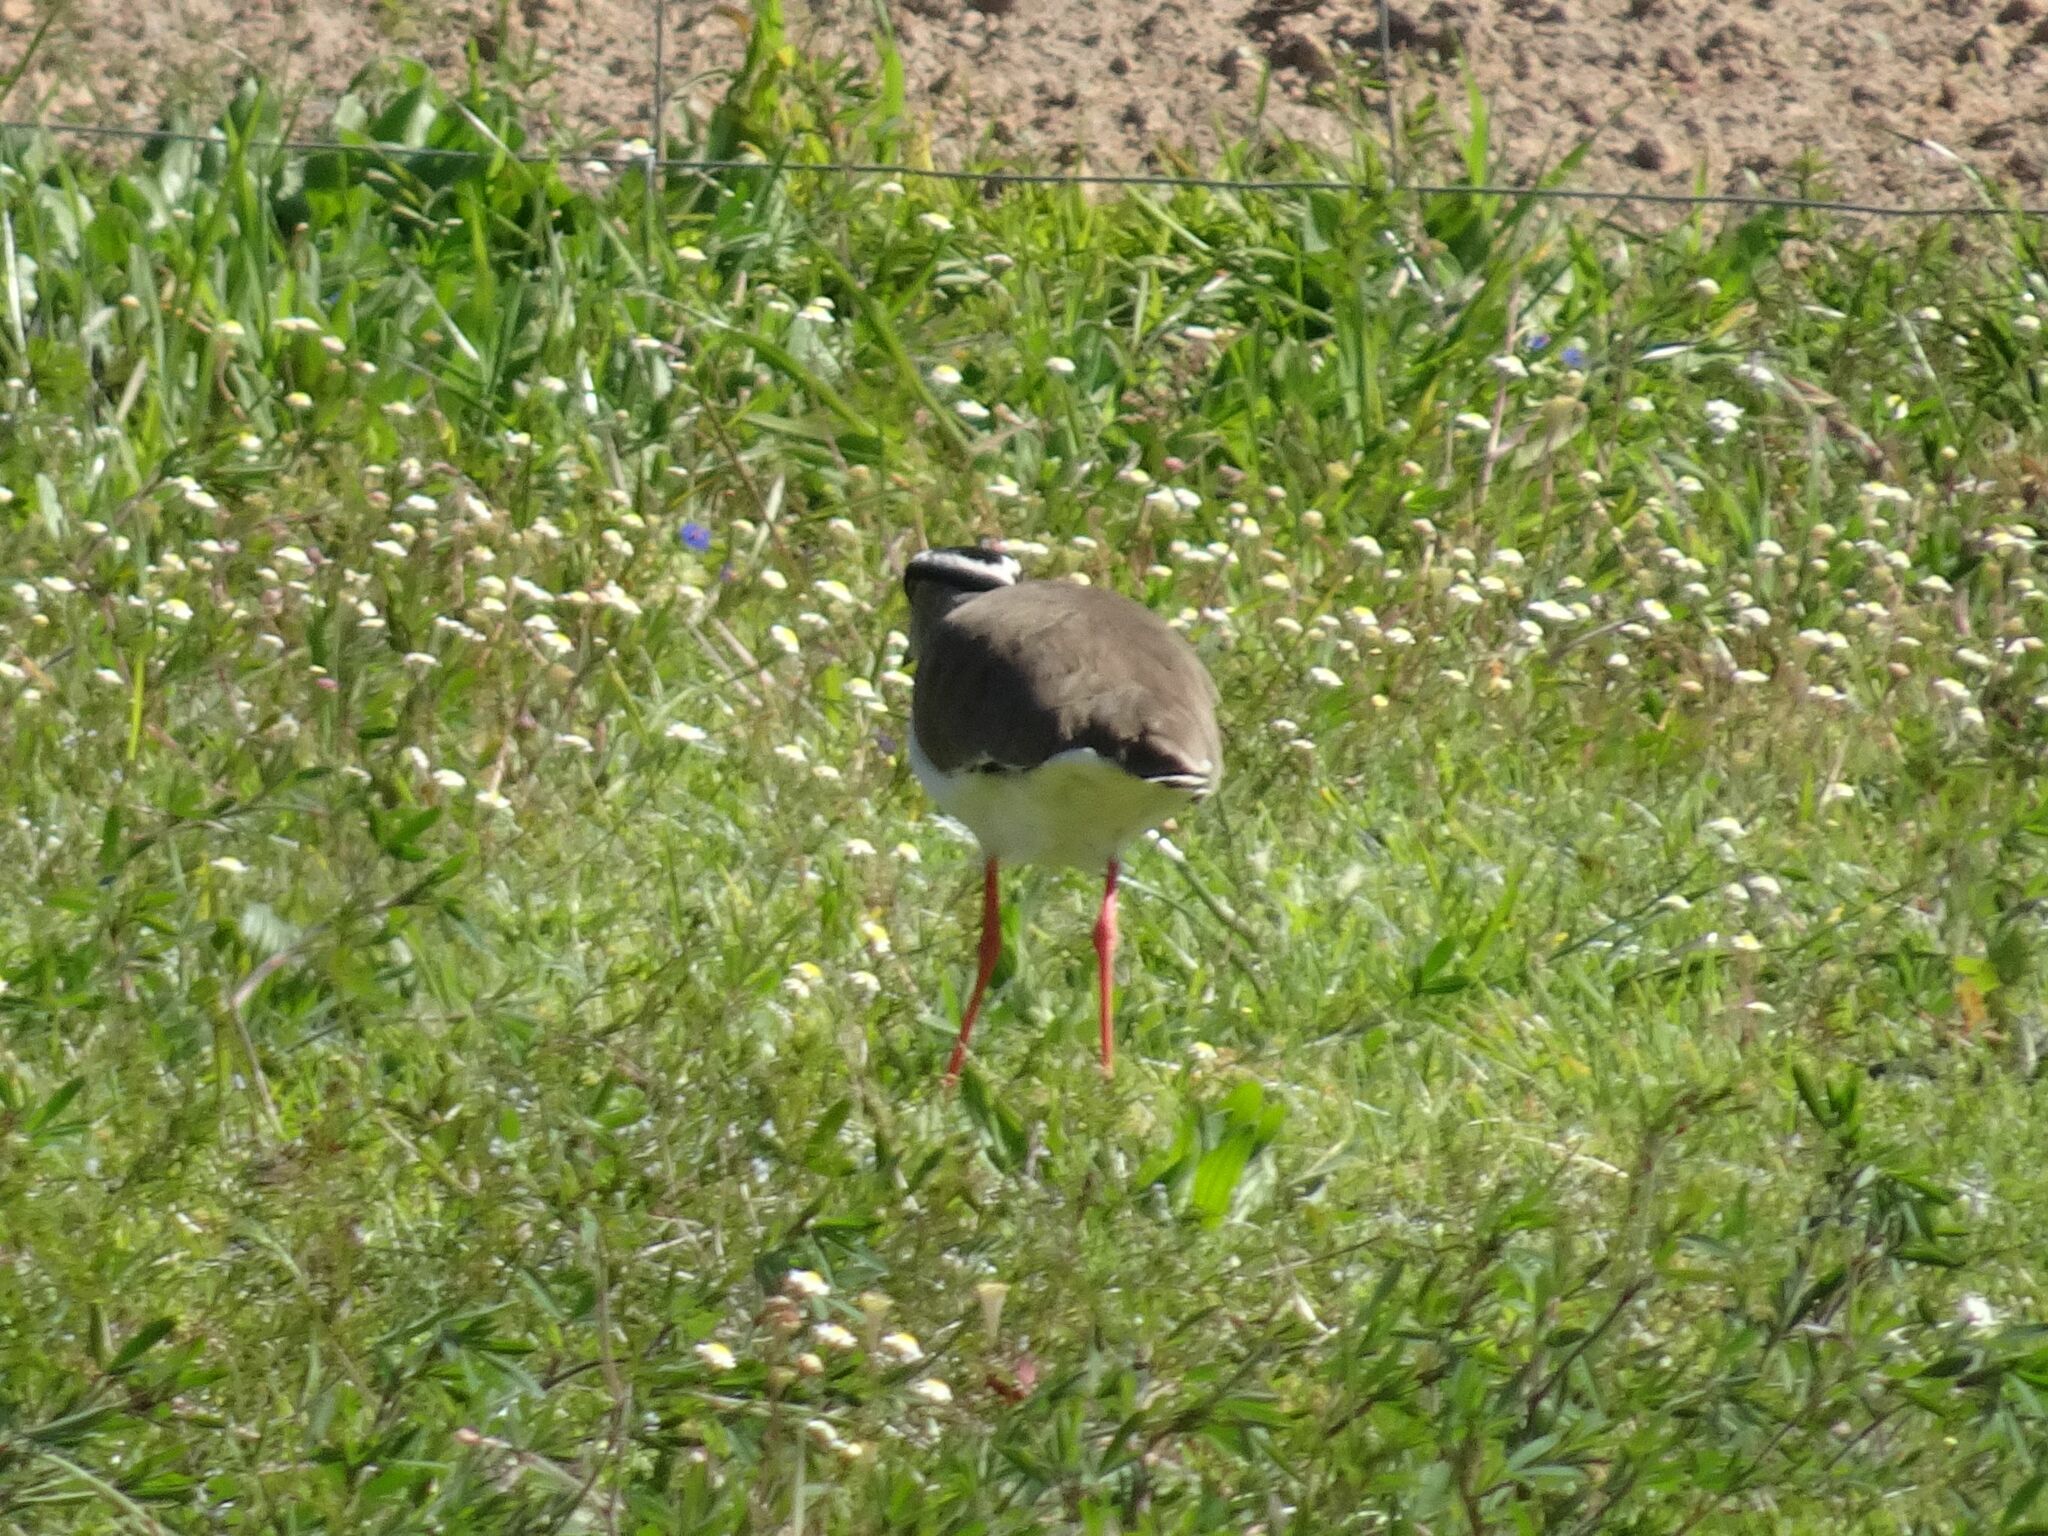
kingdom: Animalia
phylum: Chordata
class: Aves
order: Charadriiformes
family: Charadriidae
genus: Vanellus
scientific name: Vanellus coronatus
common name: Crowned lapwing
